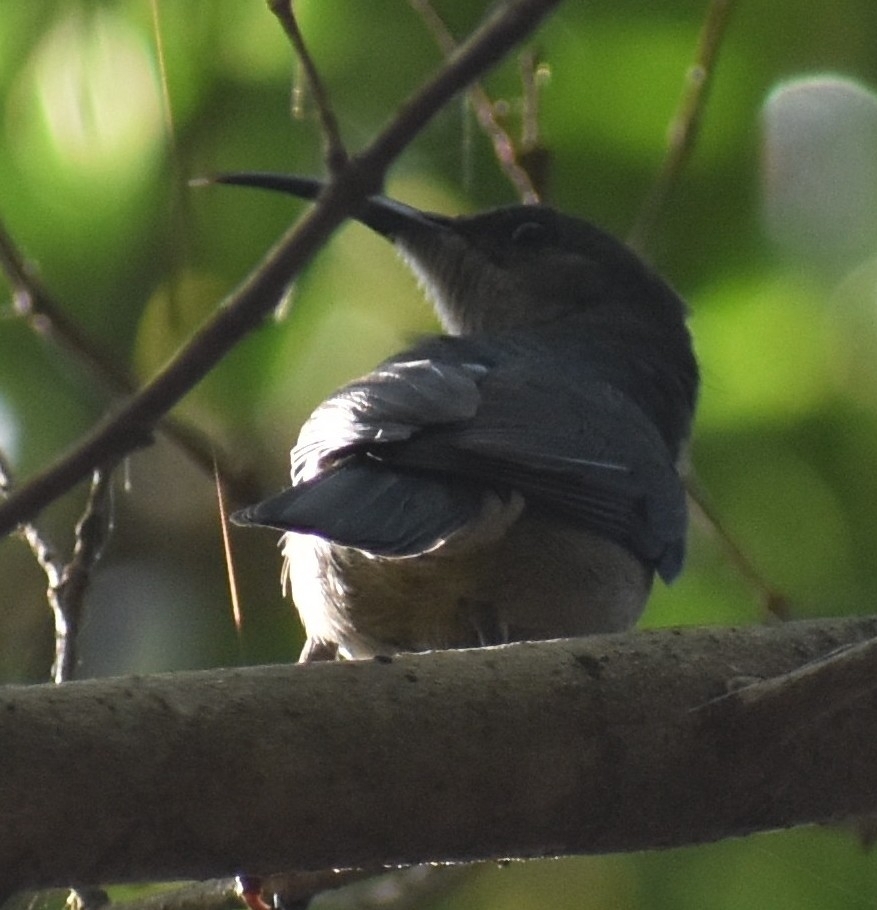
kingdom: Animalia
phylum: Chordata
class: Aves
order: Passeriformes
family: Nectariniidae
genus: Cyanomitra
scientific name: Cyanomitra veroxii
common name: Grey sunbird
